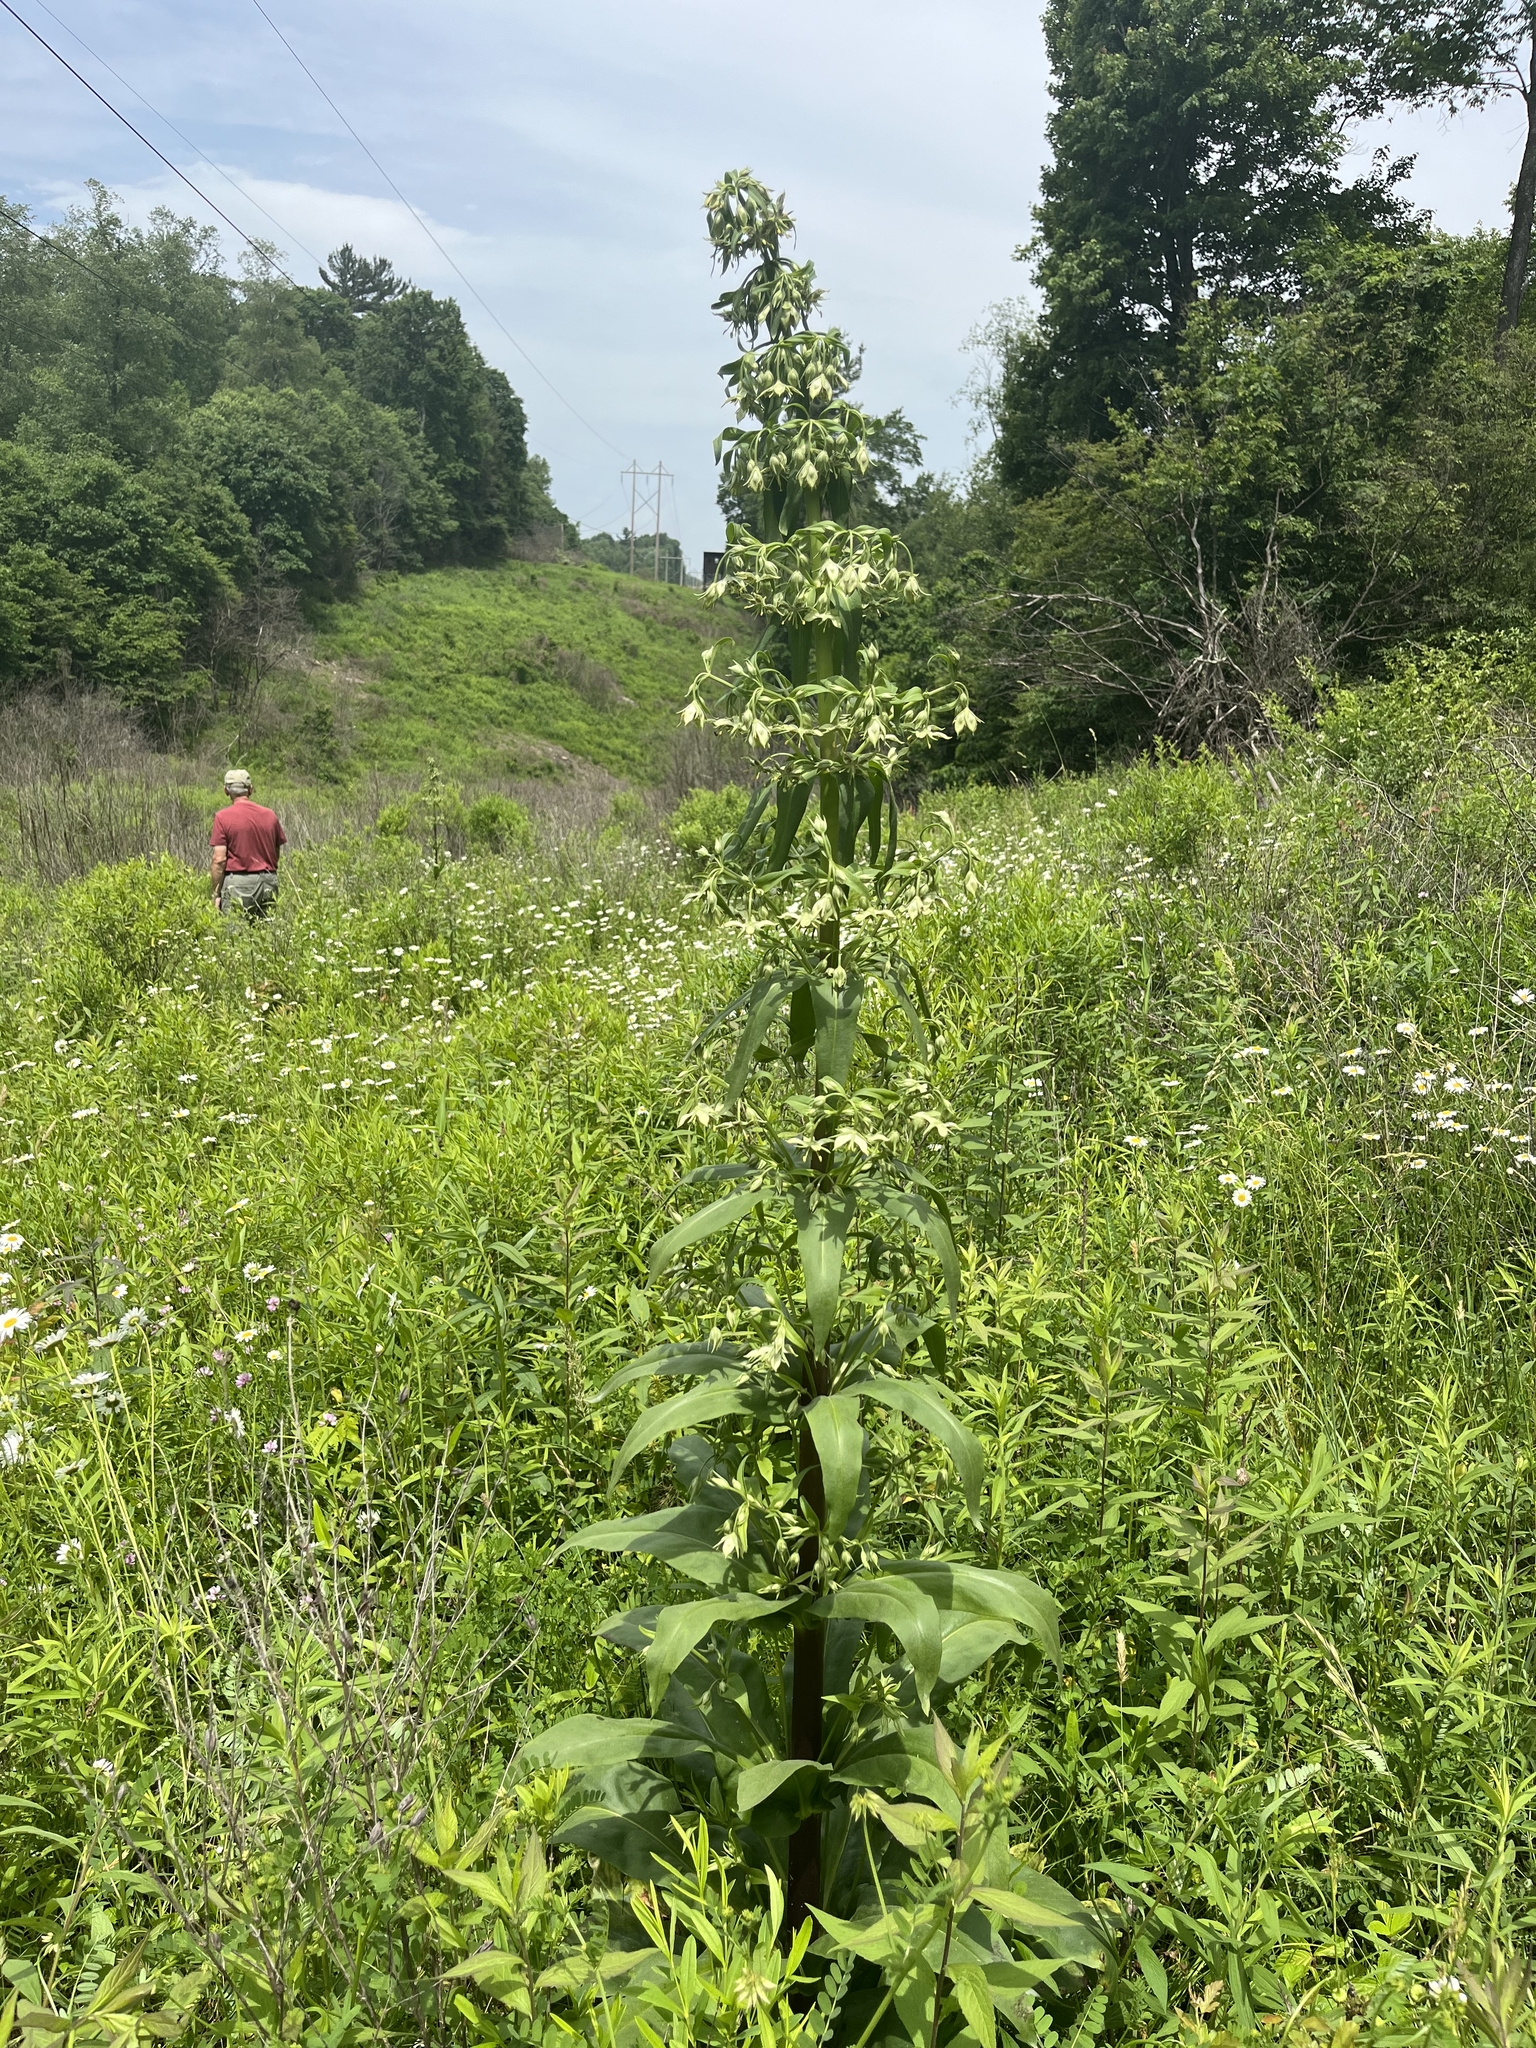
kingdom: Plantae
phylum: Tracheophyta
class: Magnoliopsida
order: Gentianales
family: Gentianaceae
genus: Frasera
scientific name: Frasera caroliniensis
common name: American columbo
